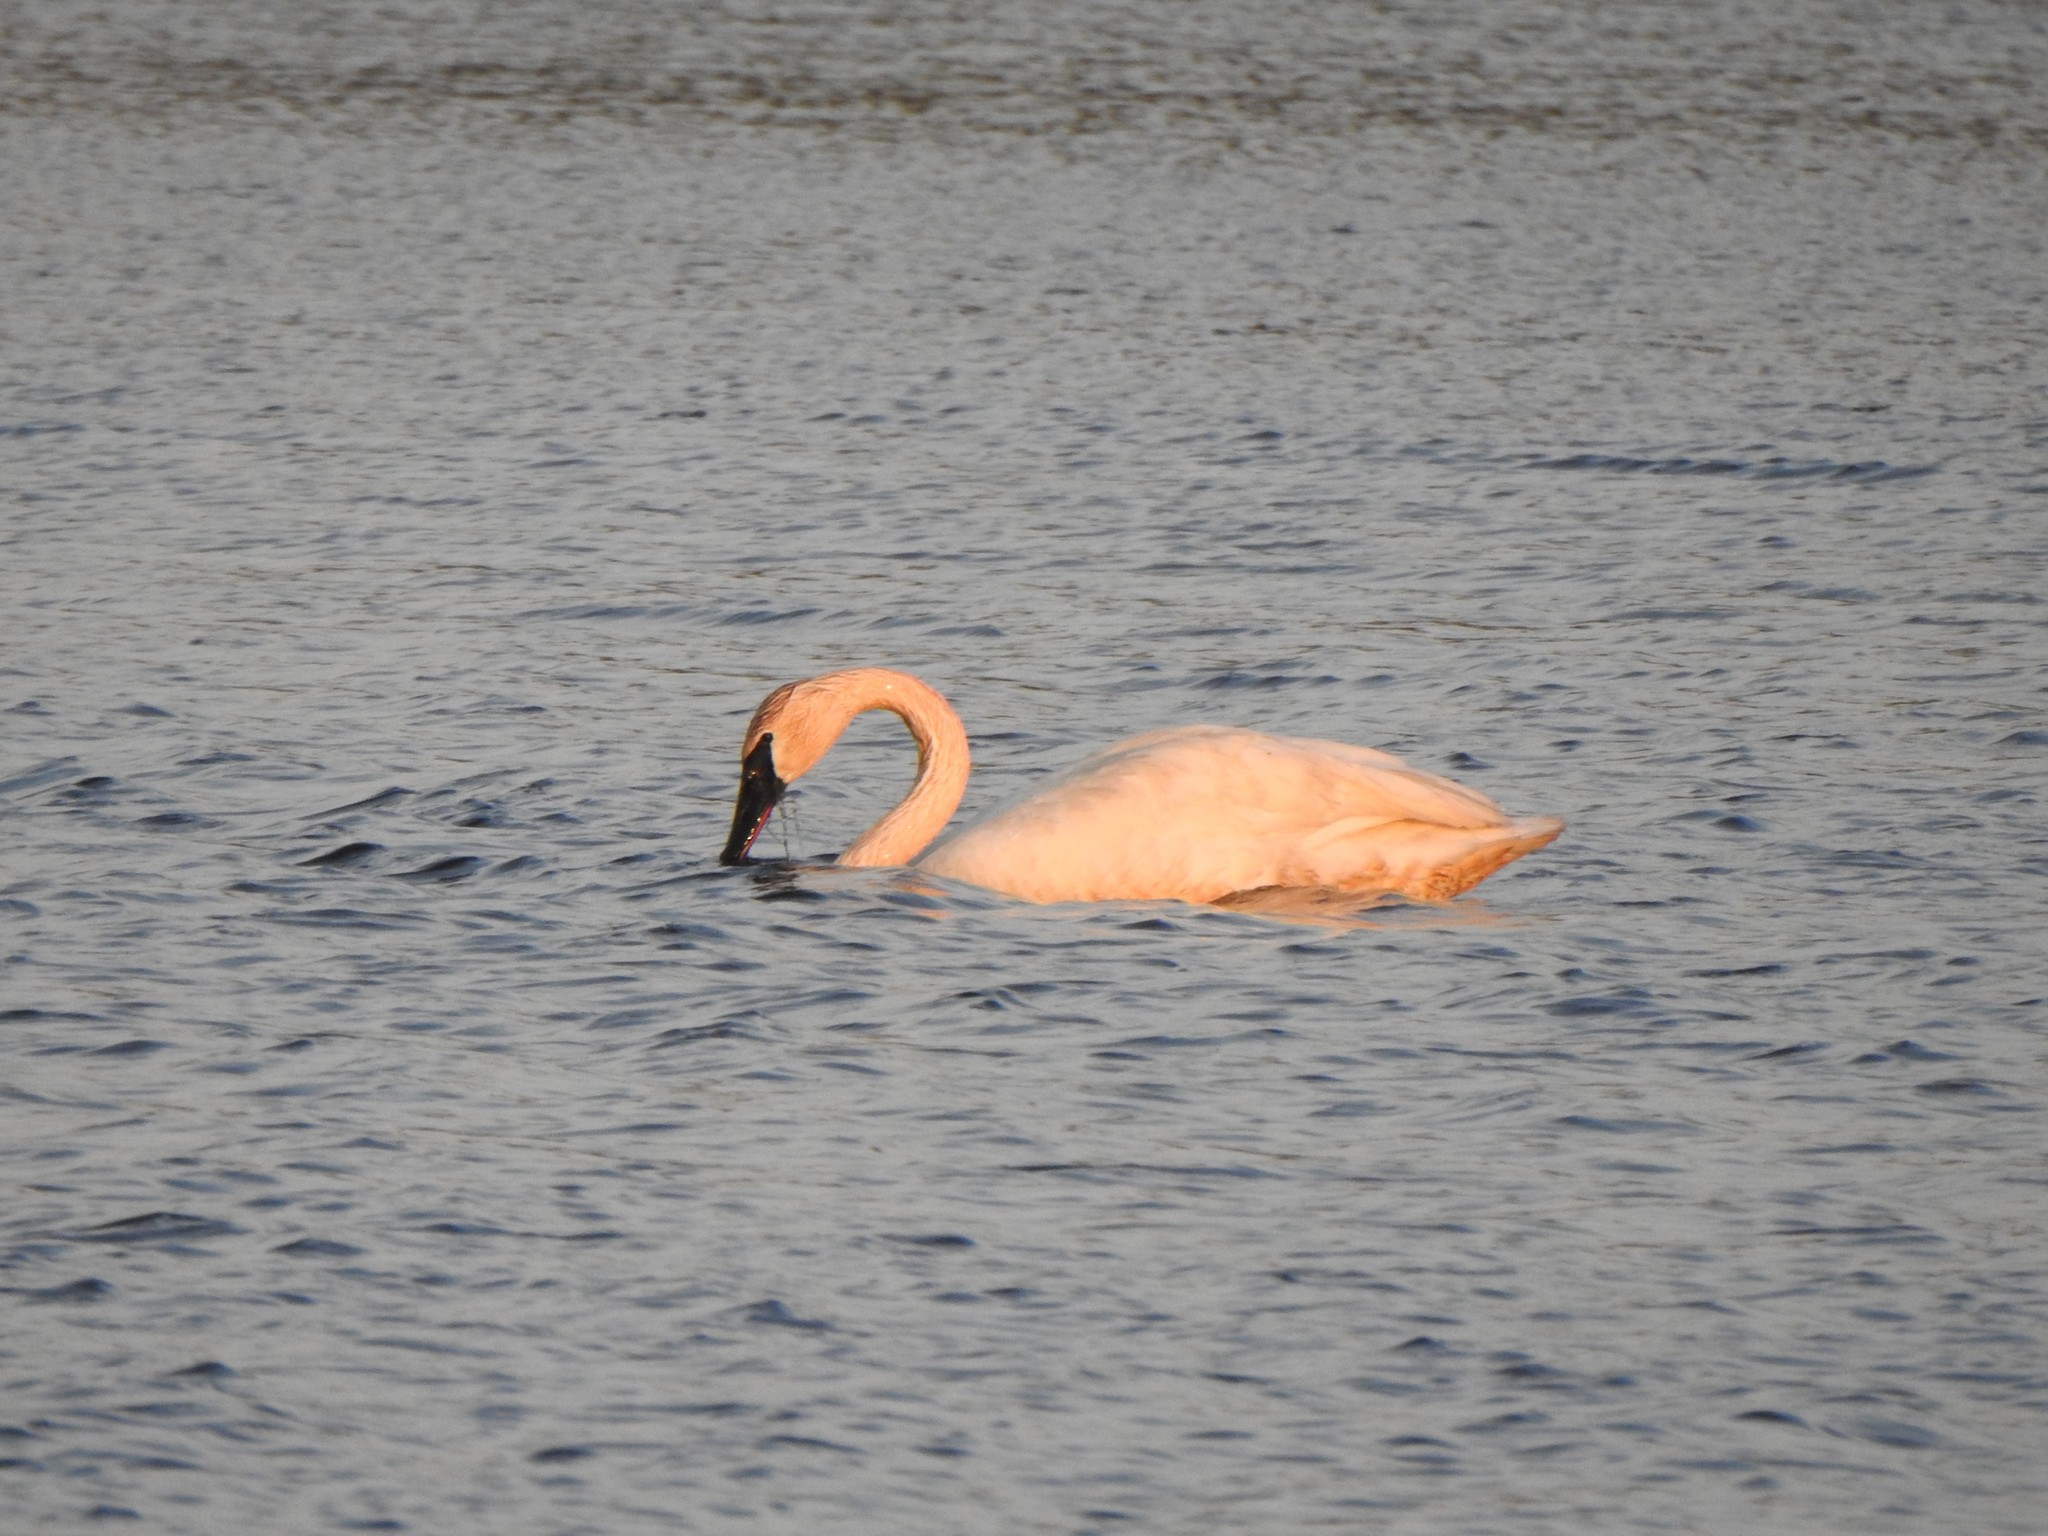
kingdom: Animalia
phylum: Chordata
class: Aves
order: Anseriformes
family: Anatidae
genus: Cygnus
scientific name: Cygnus buccinator
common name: Trumpeter swan
